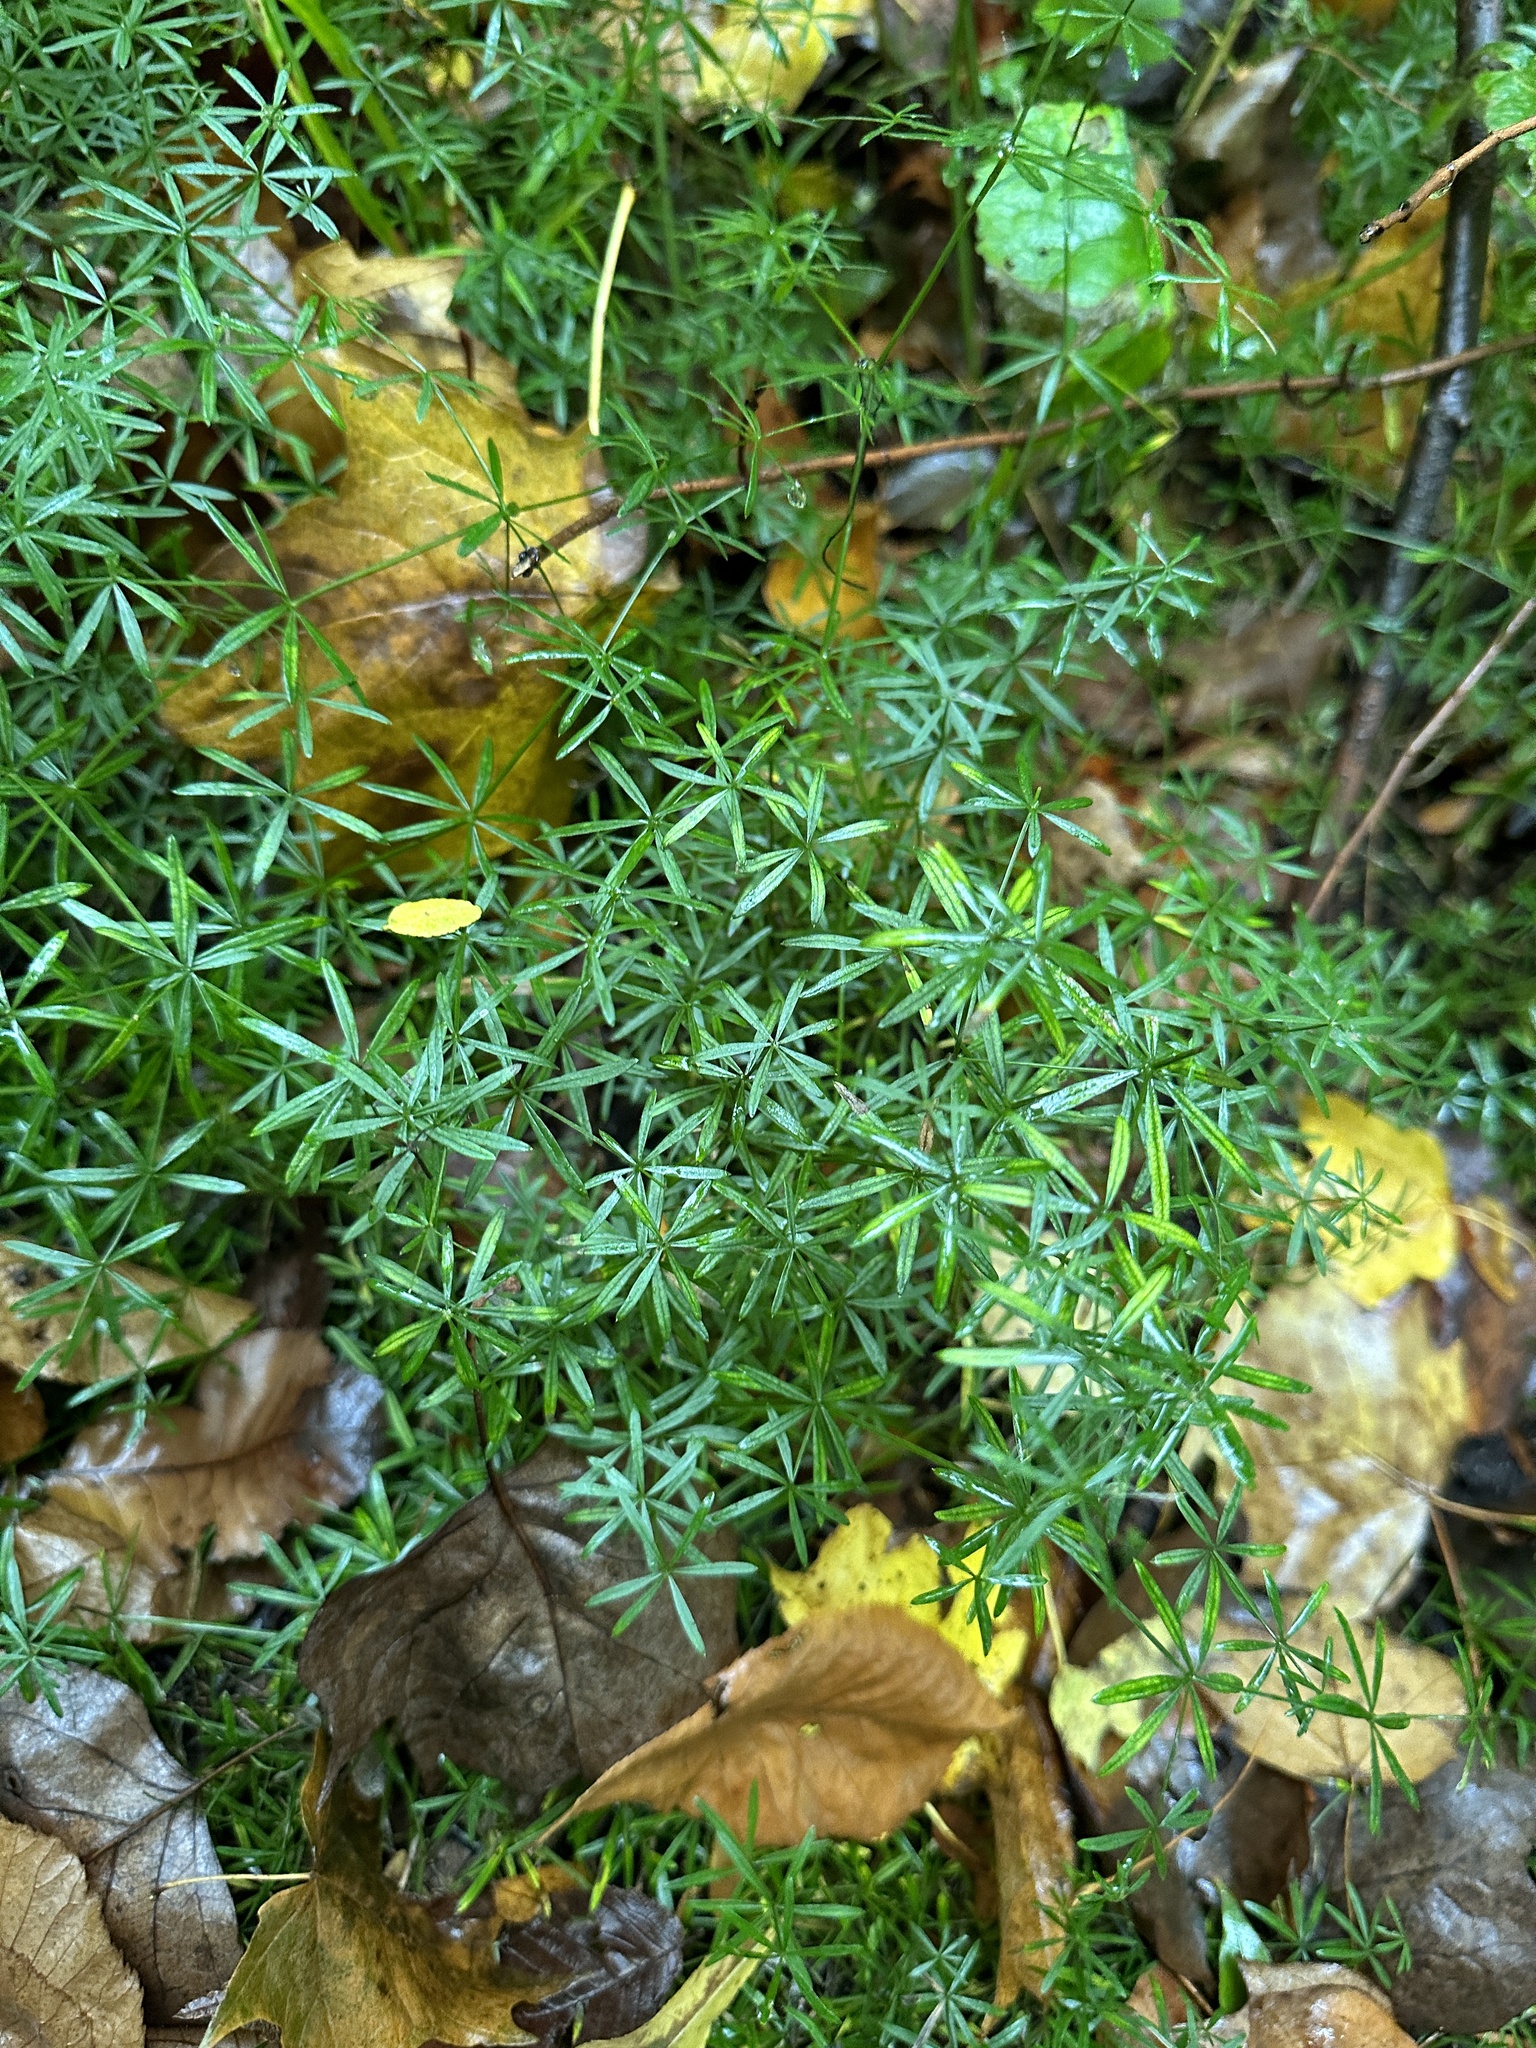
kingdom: Plantae
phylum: Tracheophyta
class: Magnoliopsida
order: Gentianales
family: Rubiaceae
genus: Galium
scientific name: Galium concinnum
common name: Shining bedstraw
